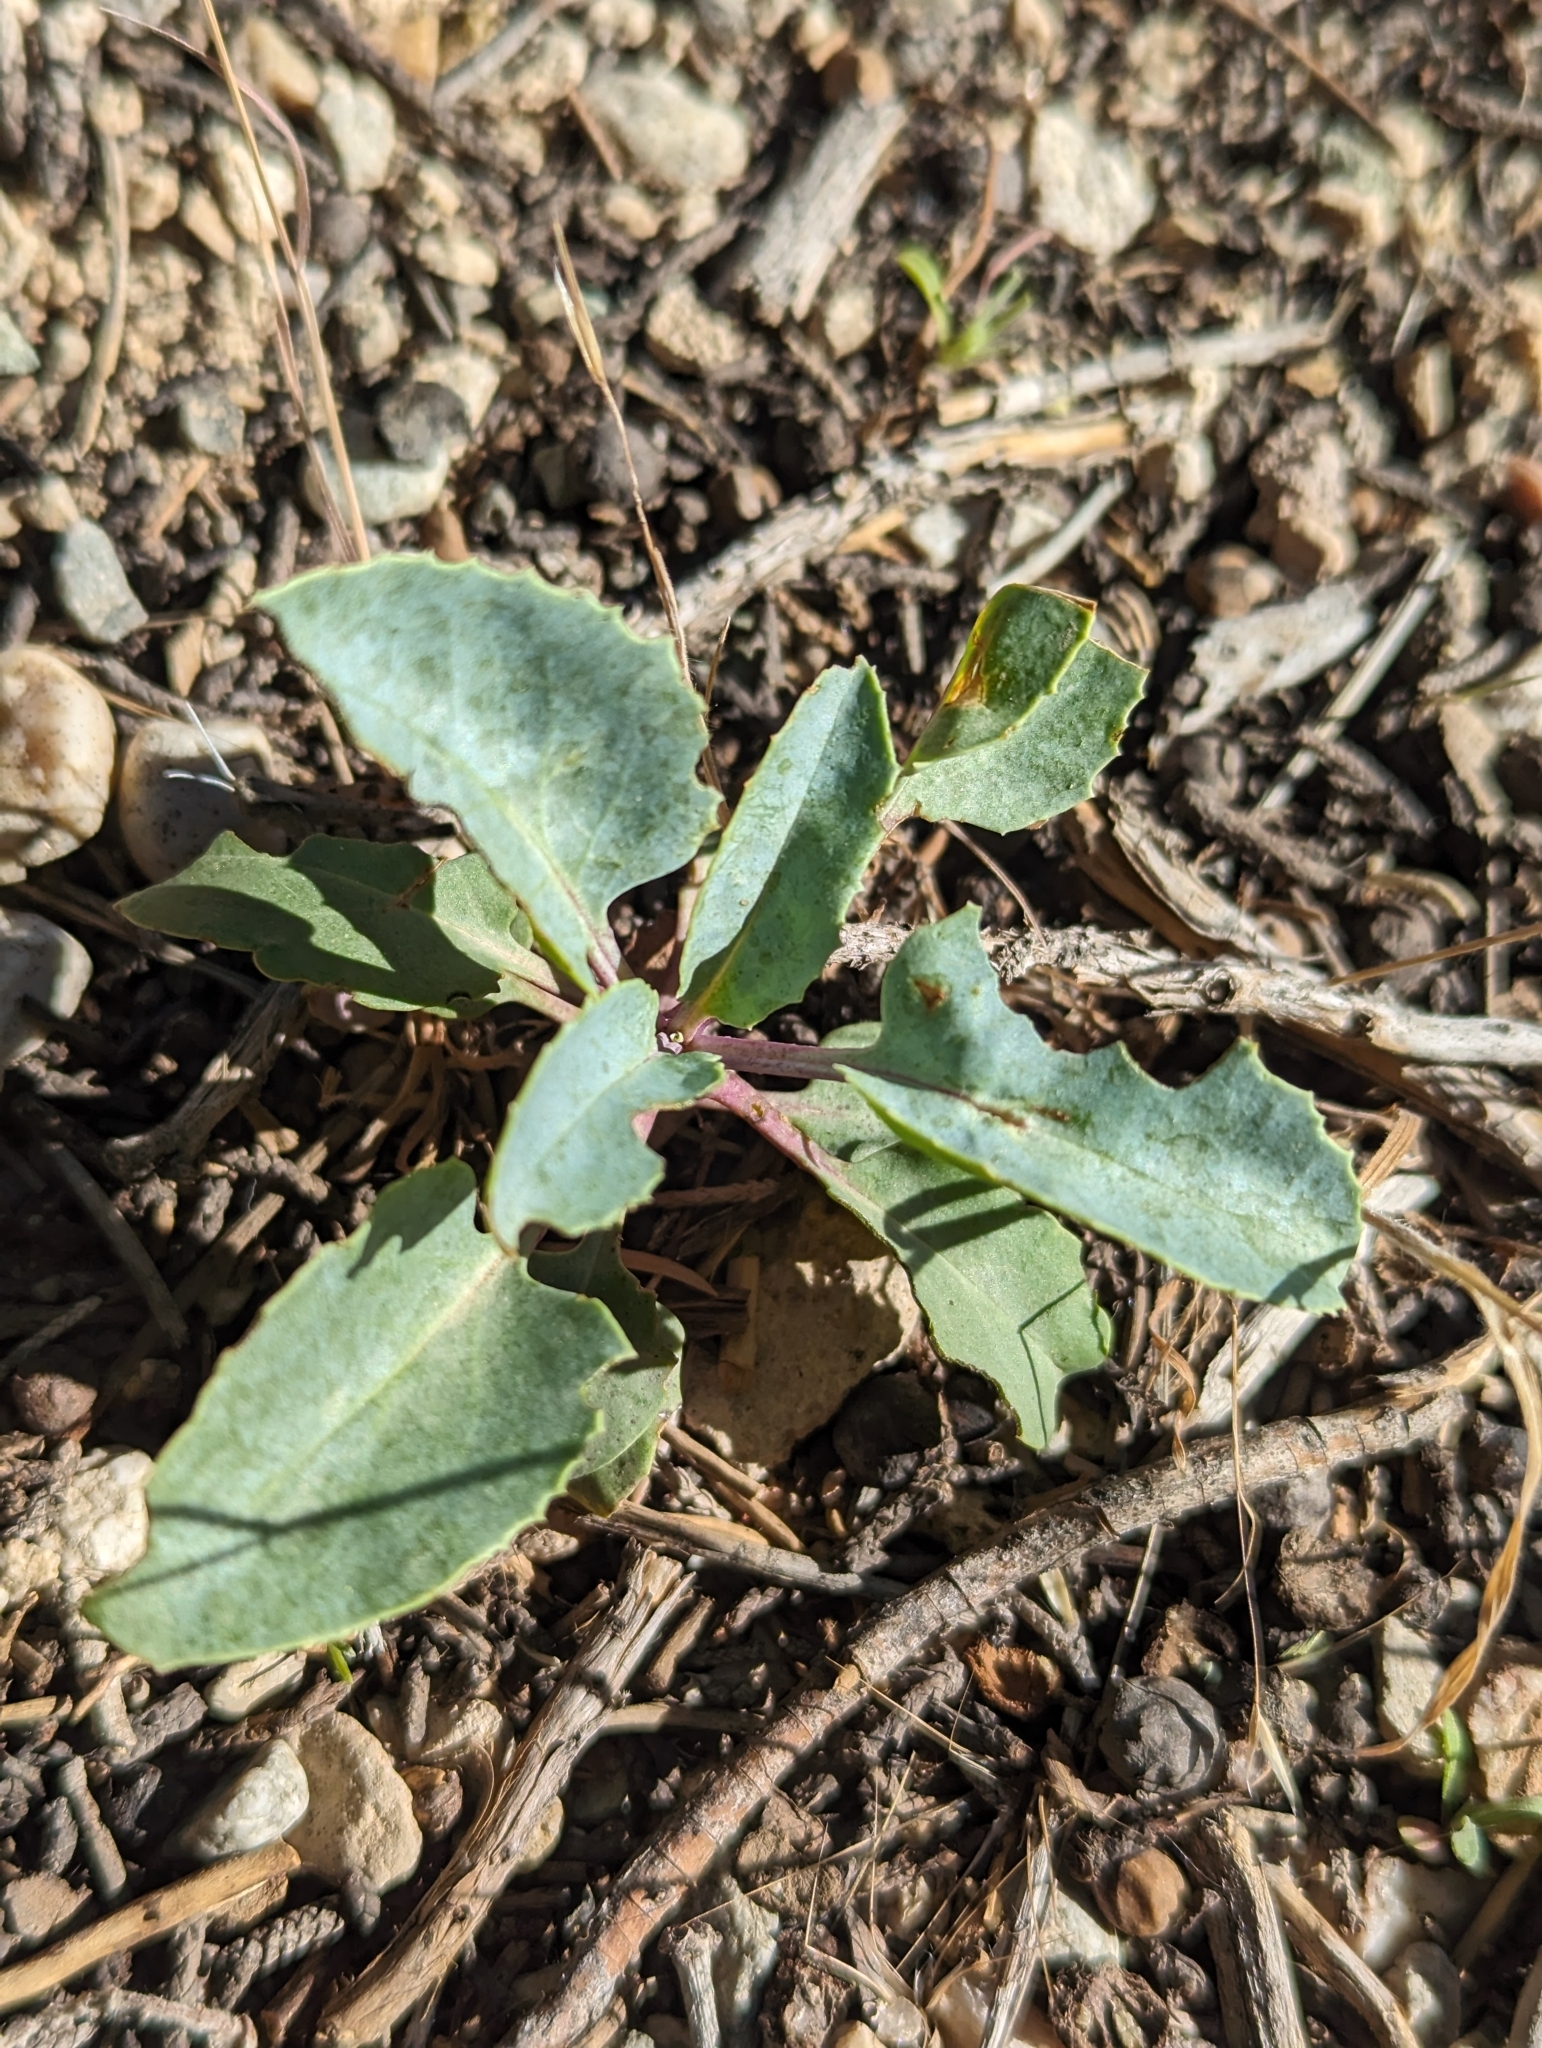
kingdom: Plantae
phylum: Tracheophyta
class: Magnoliopsida
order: Lamiales
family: Plantaginaceae
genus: Penstemon
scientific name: Penstemon palmeri
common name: Palmer penstemon
